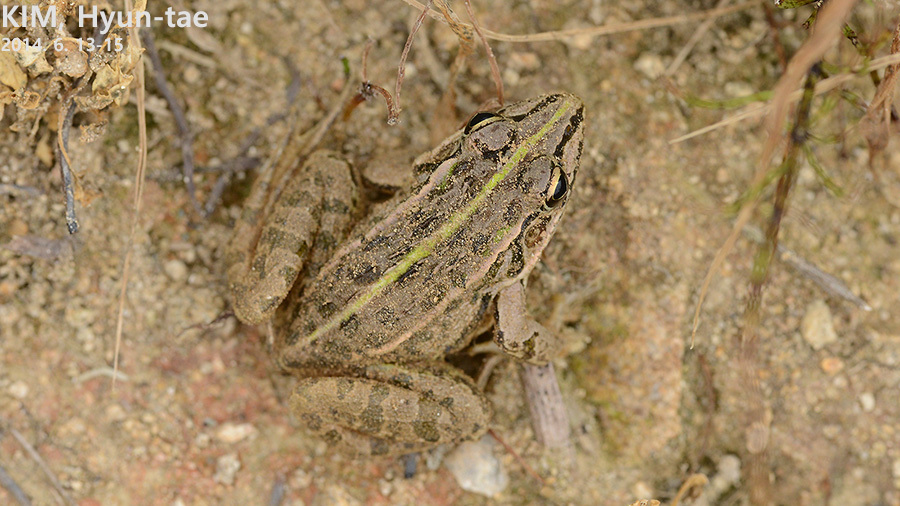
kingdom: Animalia
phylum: Chordata
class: Amphibia
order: Anura
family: Ranidae
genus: Pelophylax
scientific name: Pelophylax nigromaculatus
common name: Black-spotted pond frog
